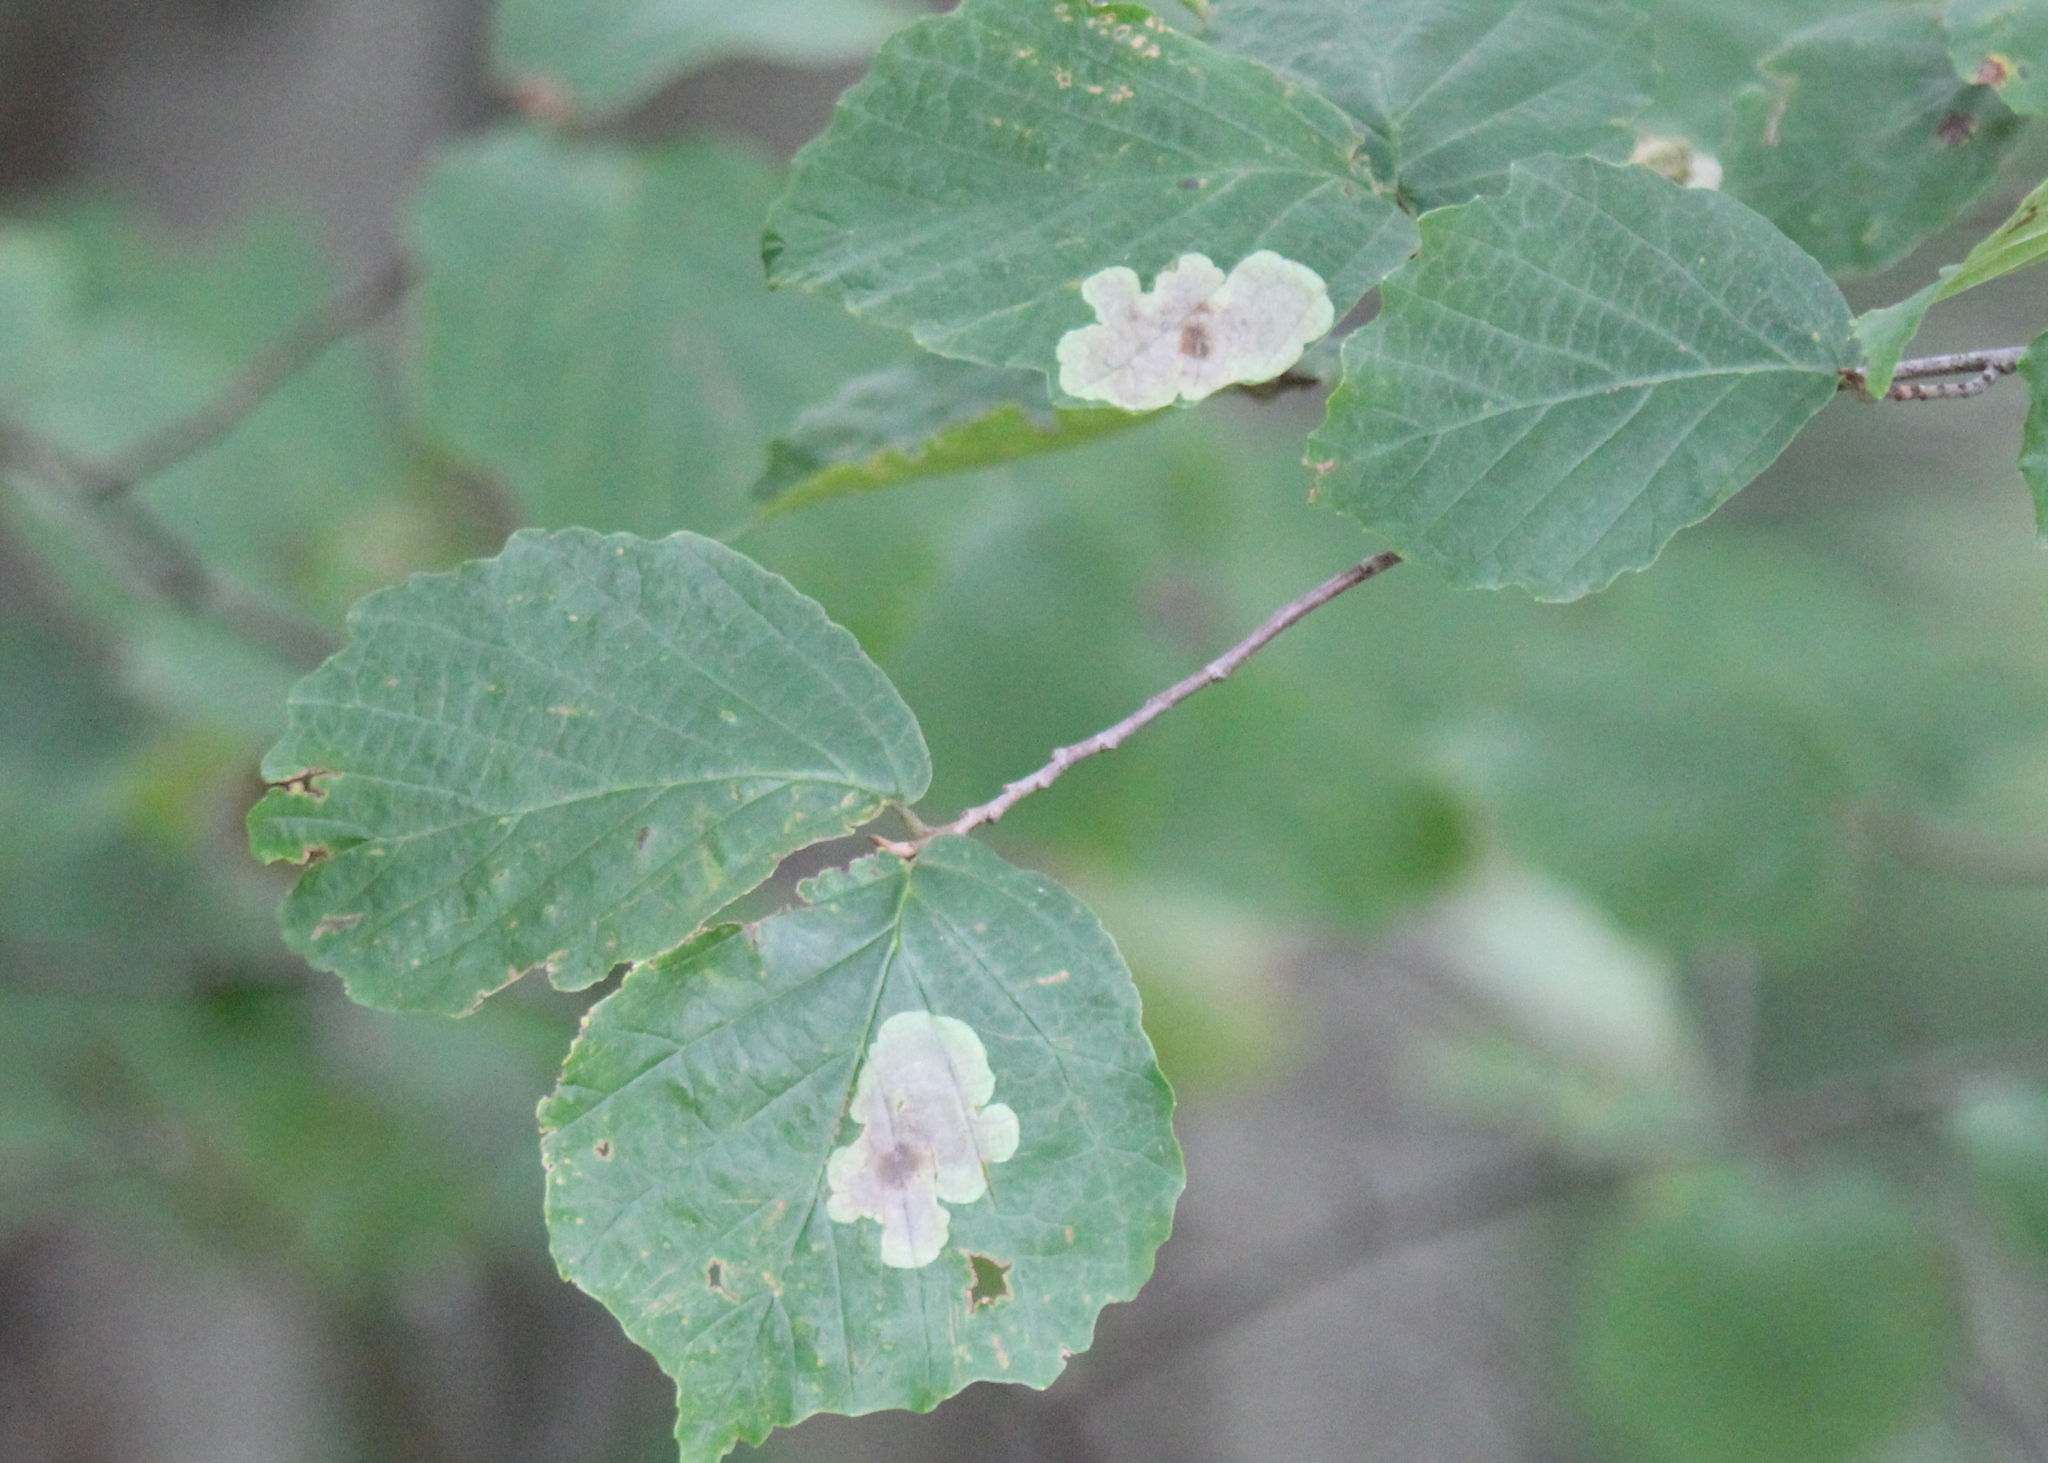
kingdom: Plantae
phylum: Tracheophyta
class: Magnoliopsida
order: Saxifragales
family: Hamamelidaceae
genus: Hamamelis
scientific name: Hamamelis virginiana
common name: Witch-hazel
